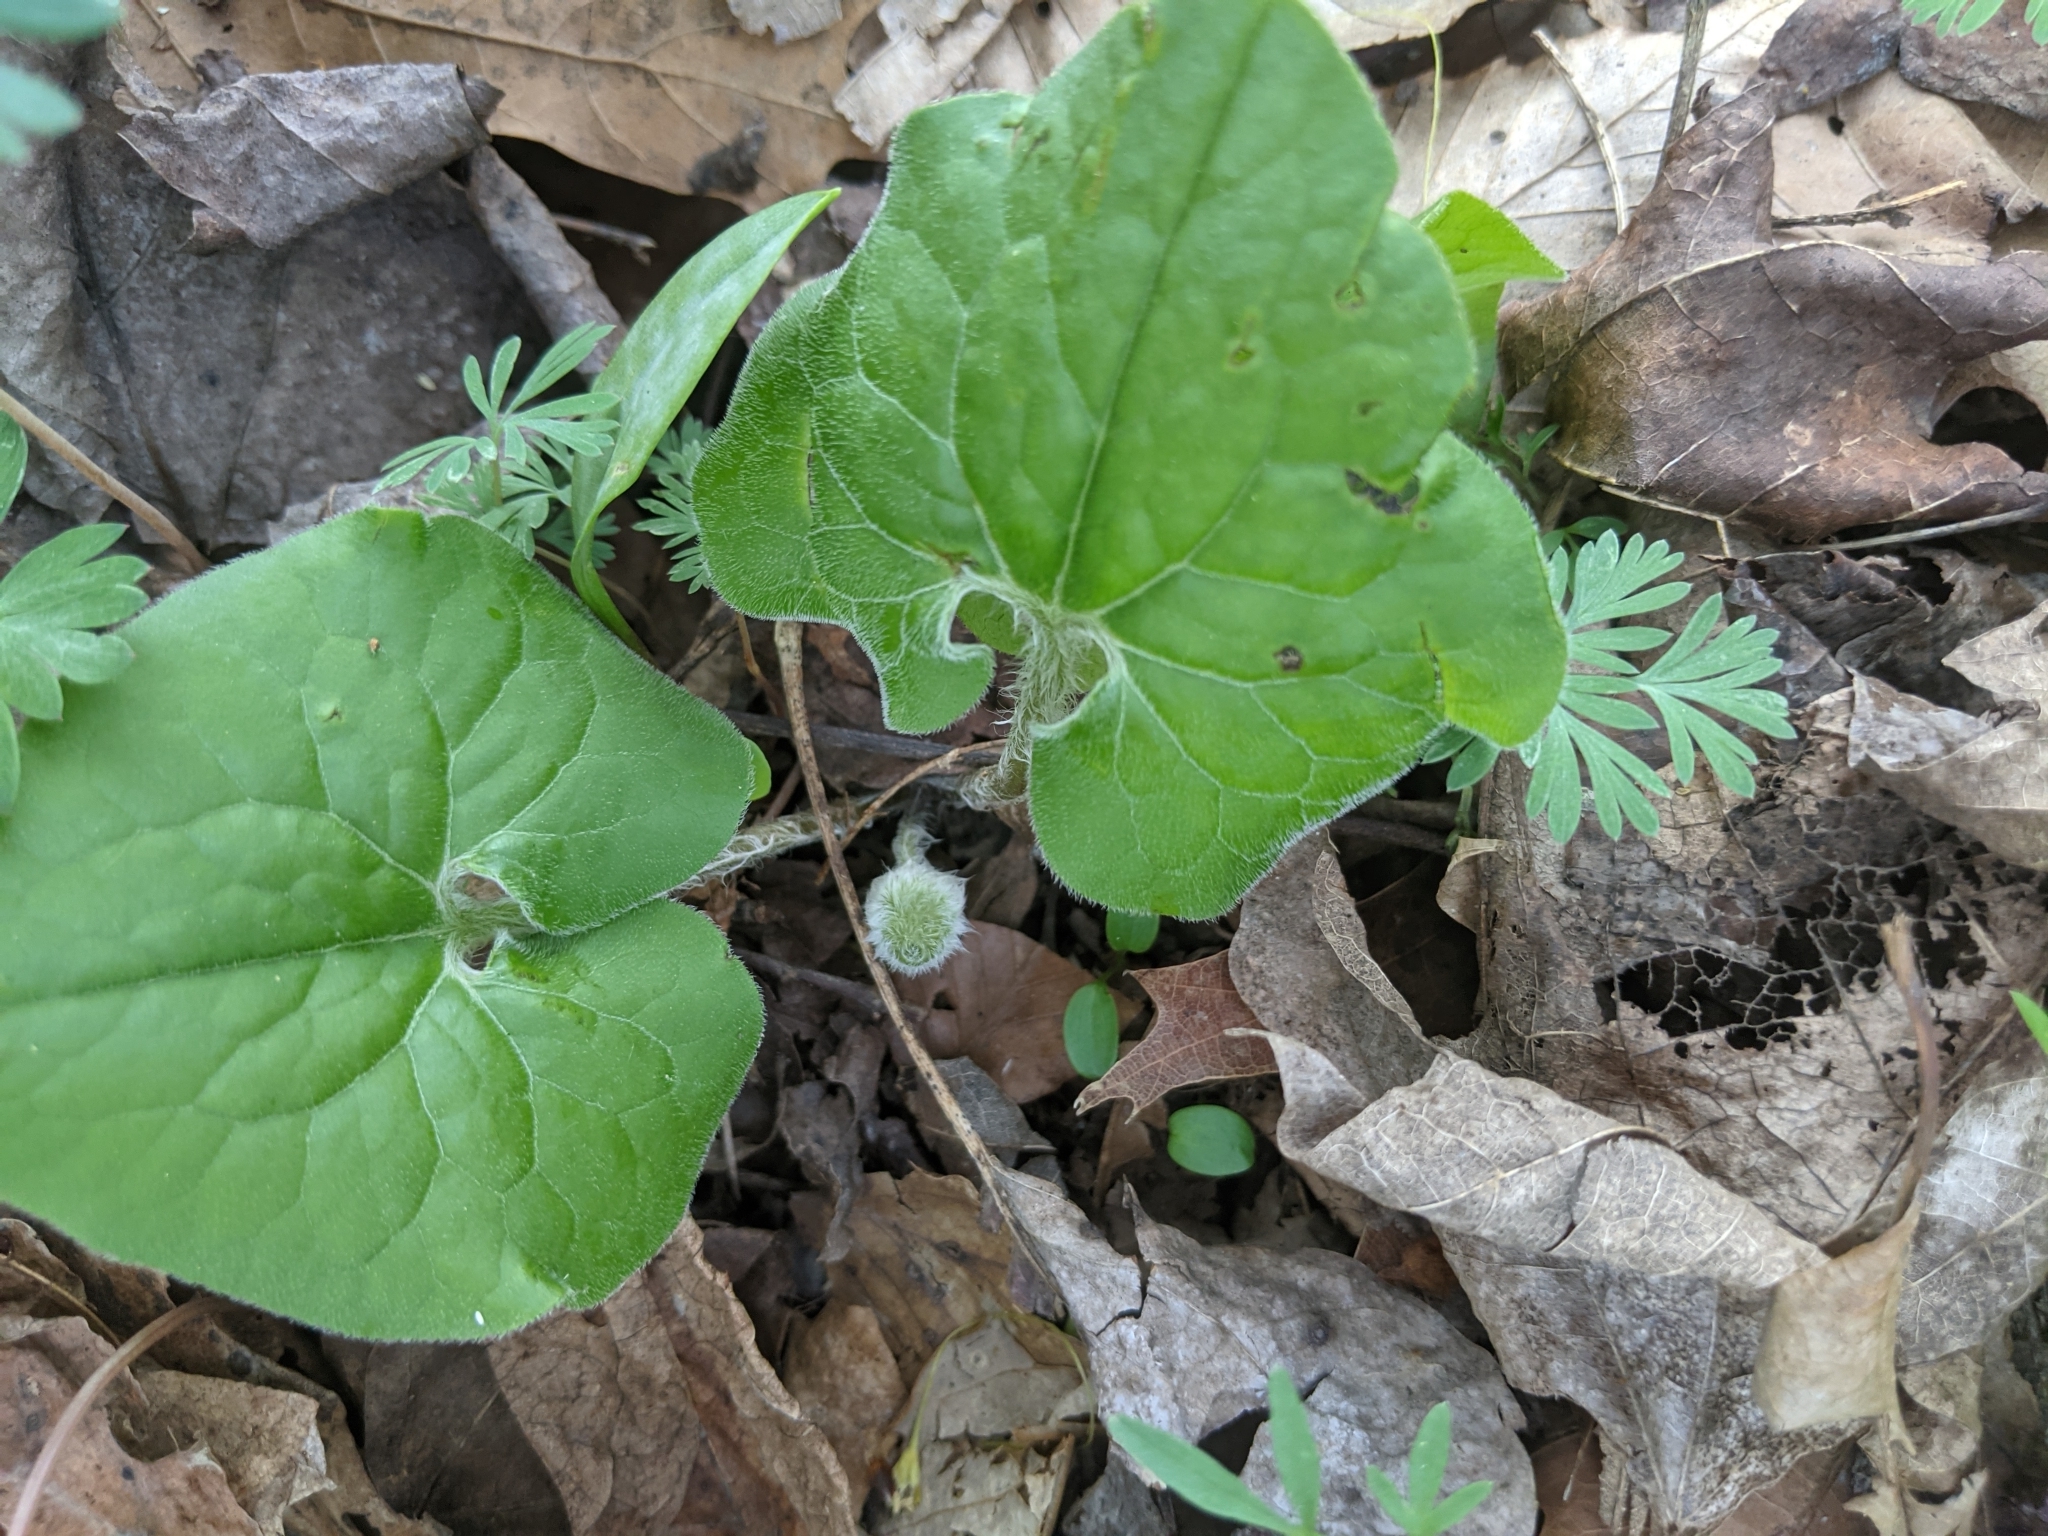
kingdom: Plantae
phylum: Tracheophyta
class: Magnoliopsida
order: Piperales
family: Aristolochiaceae
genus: Asarum
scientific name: Asarum canadense
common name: Wild ginger
